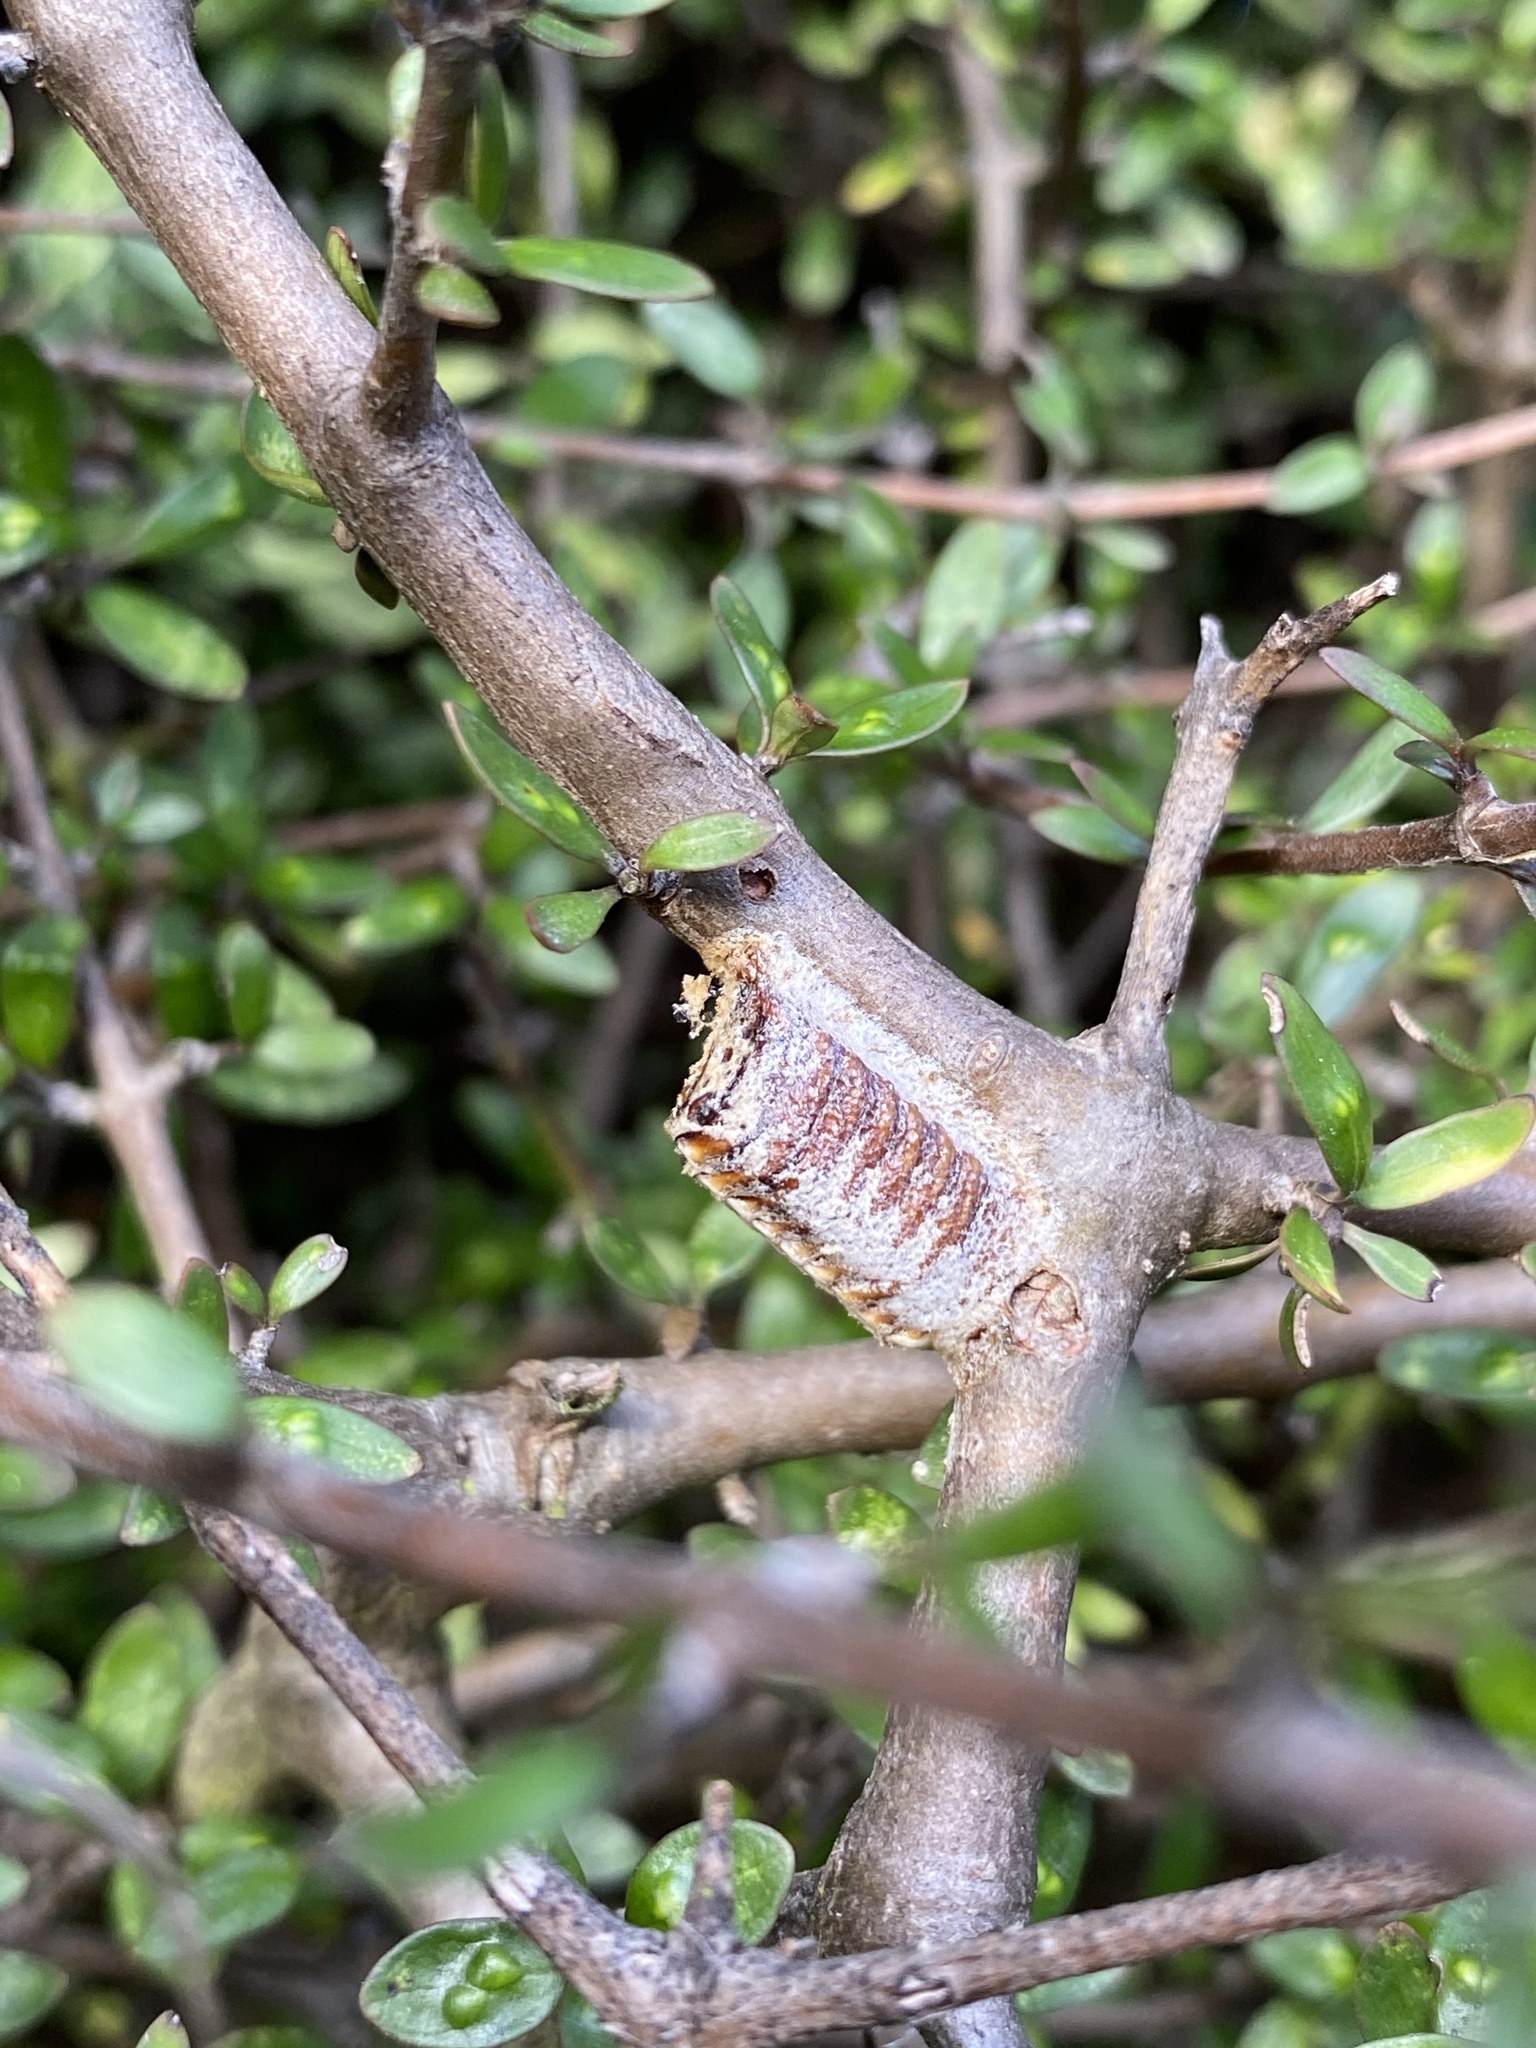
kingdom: Animalia
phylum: Arthropoda
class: Insecta
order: Mantodea
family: Mantidae
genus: Orthodera
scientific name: Orthodera novaezealandiae
